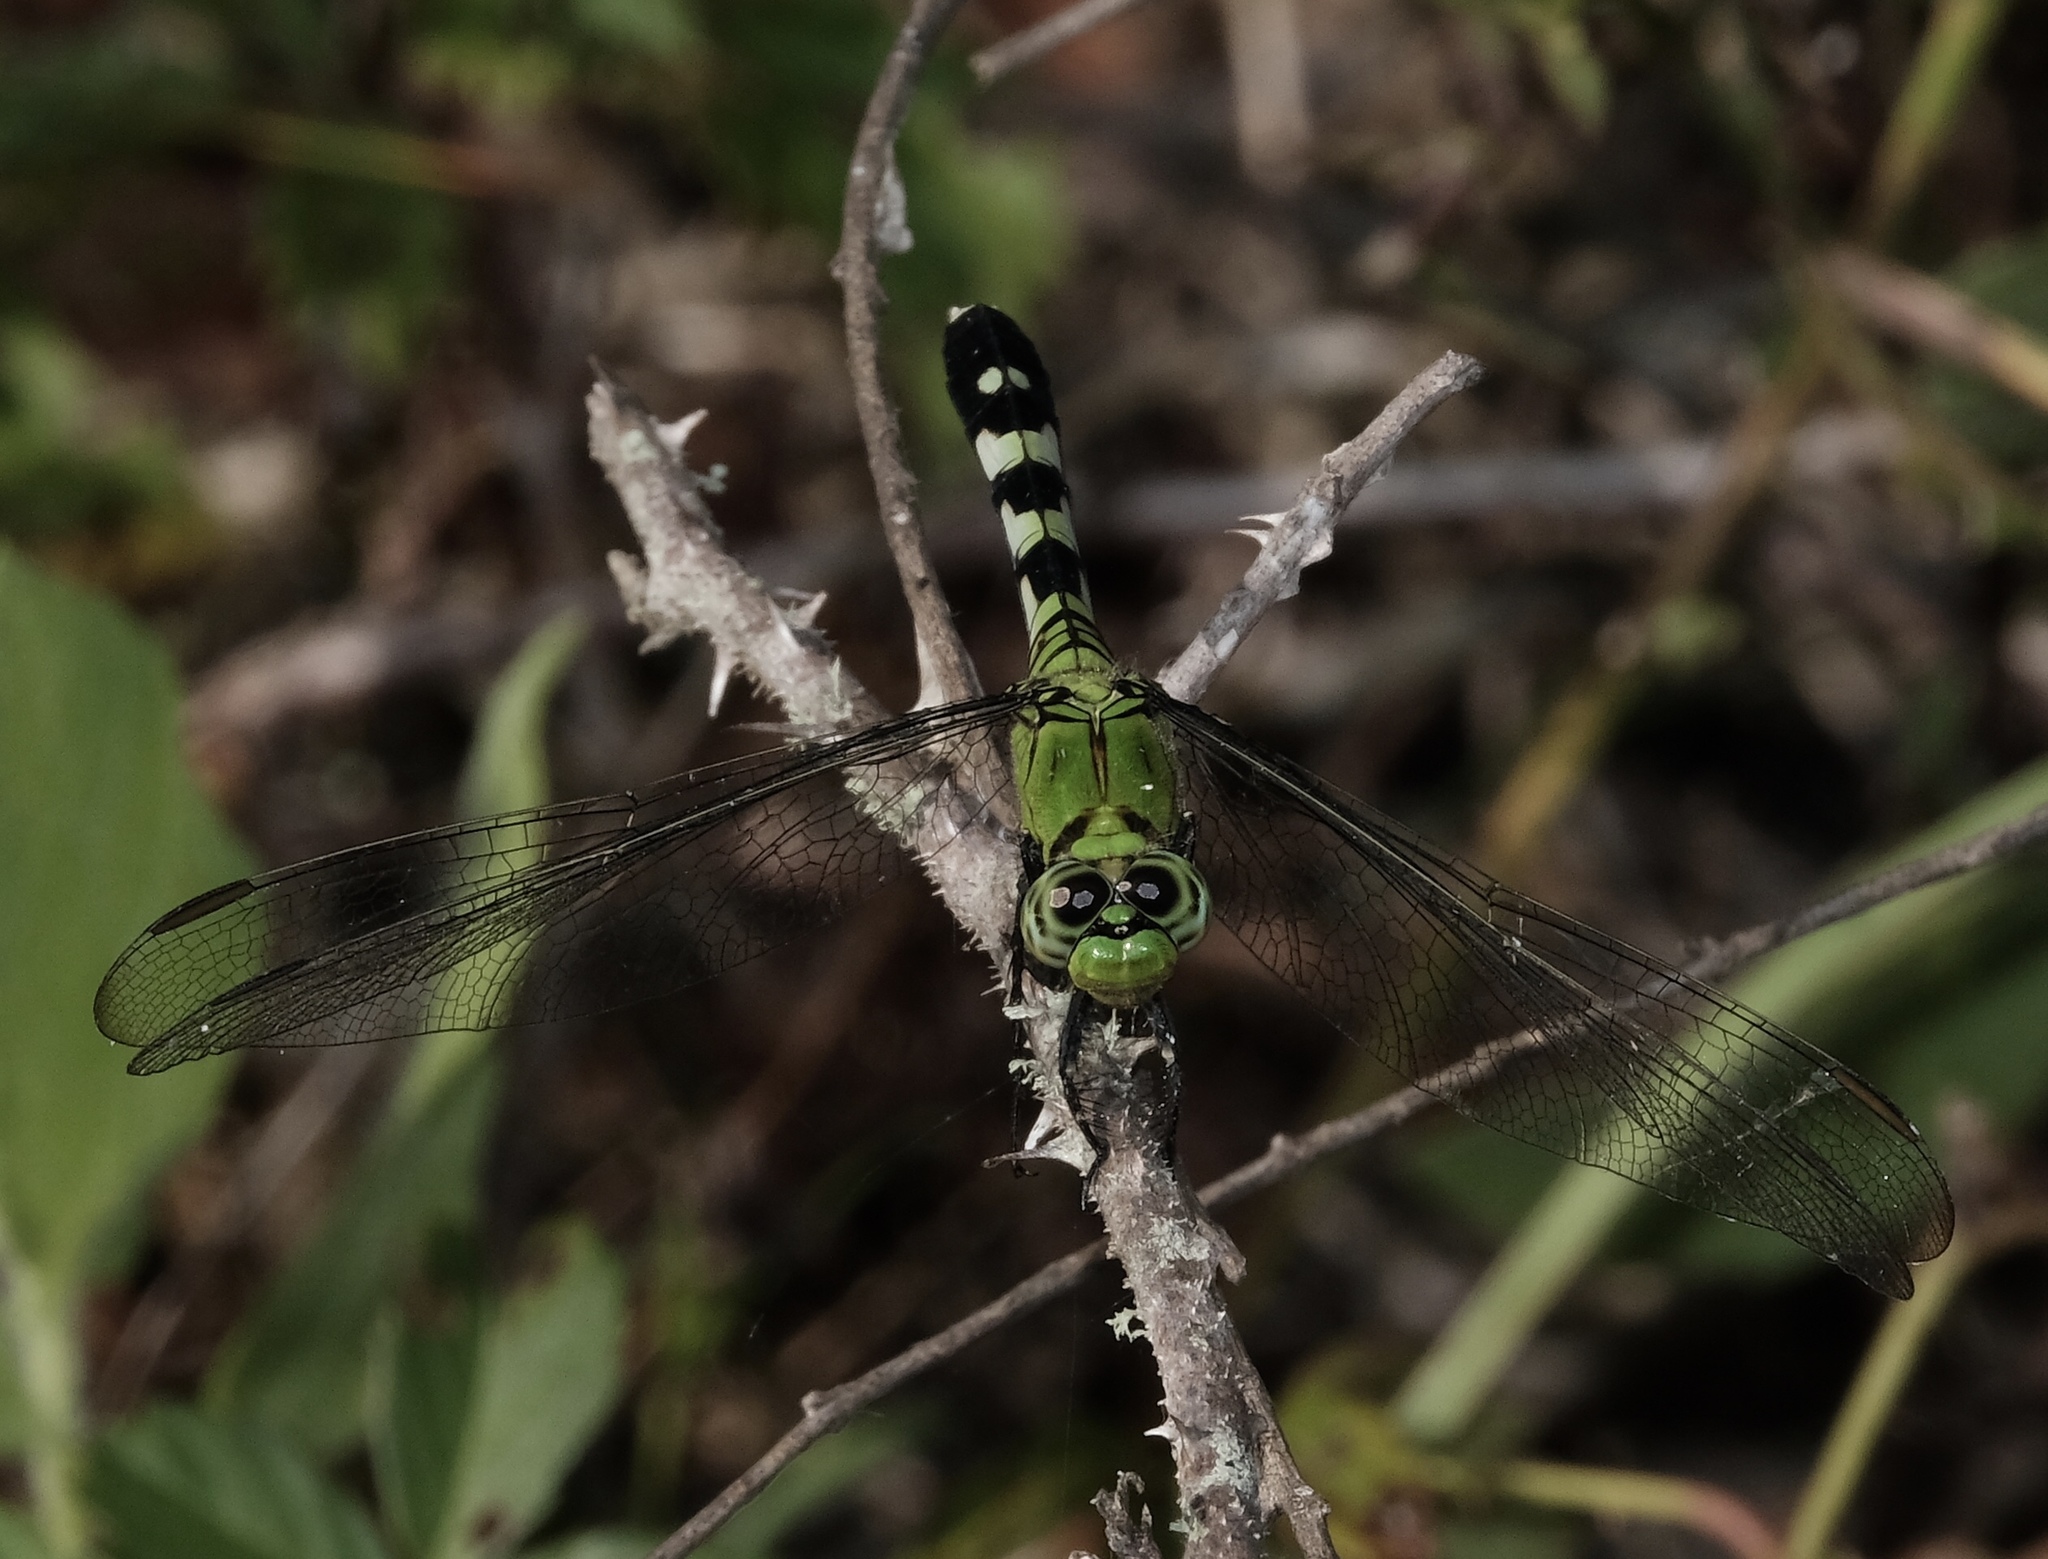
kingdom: Animalia
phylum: Arthropoda
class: Insecta
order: Odonata
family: Libellulidae
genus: Erythemis
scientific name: Erythemis simplicicollis
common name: Eastern pondhawk
